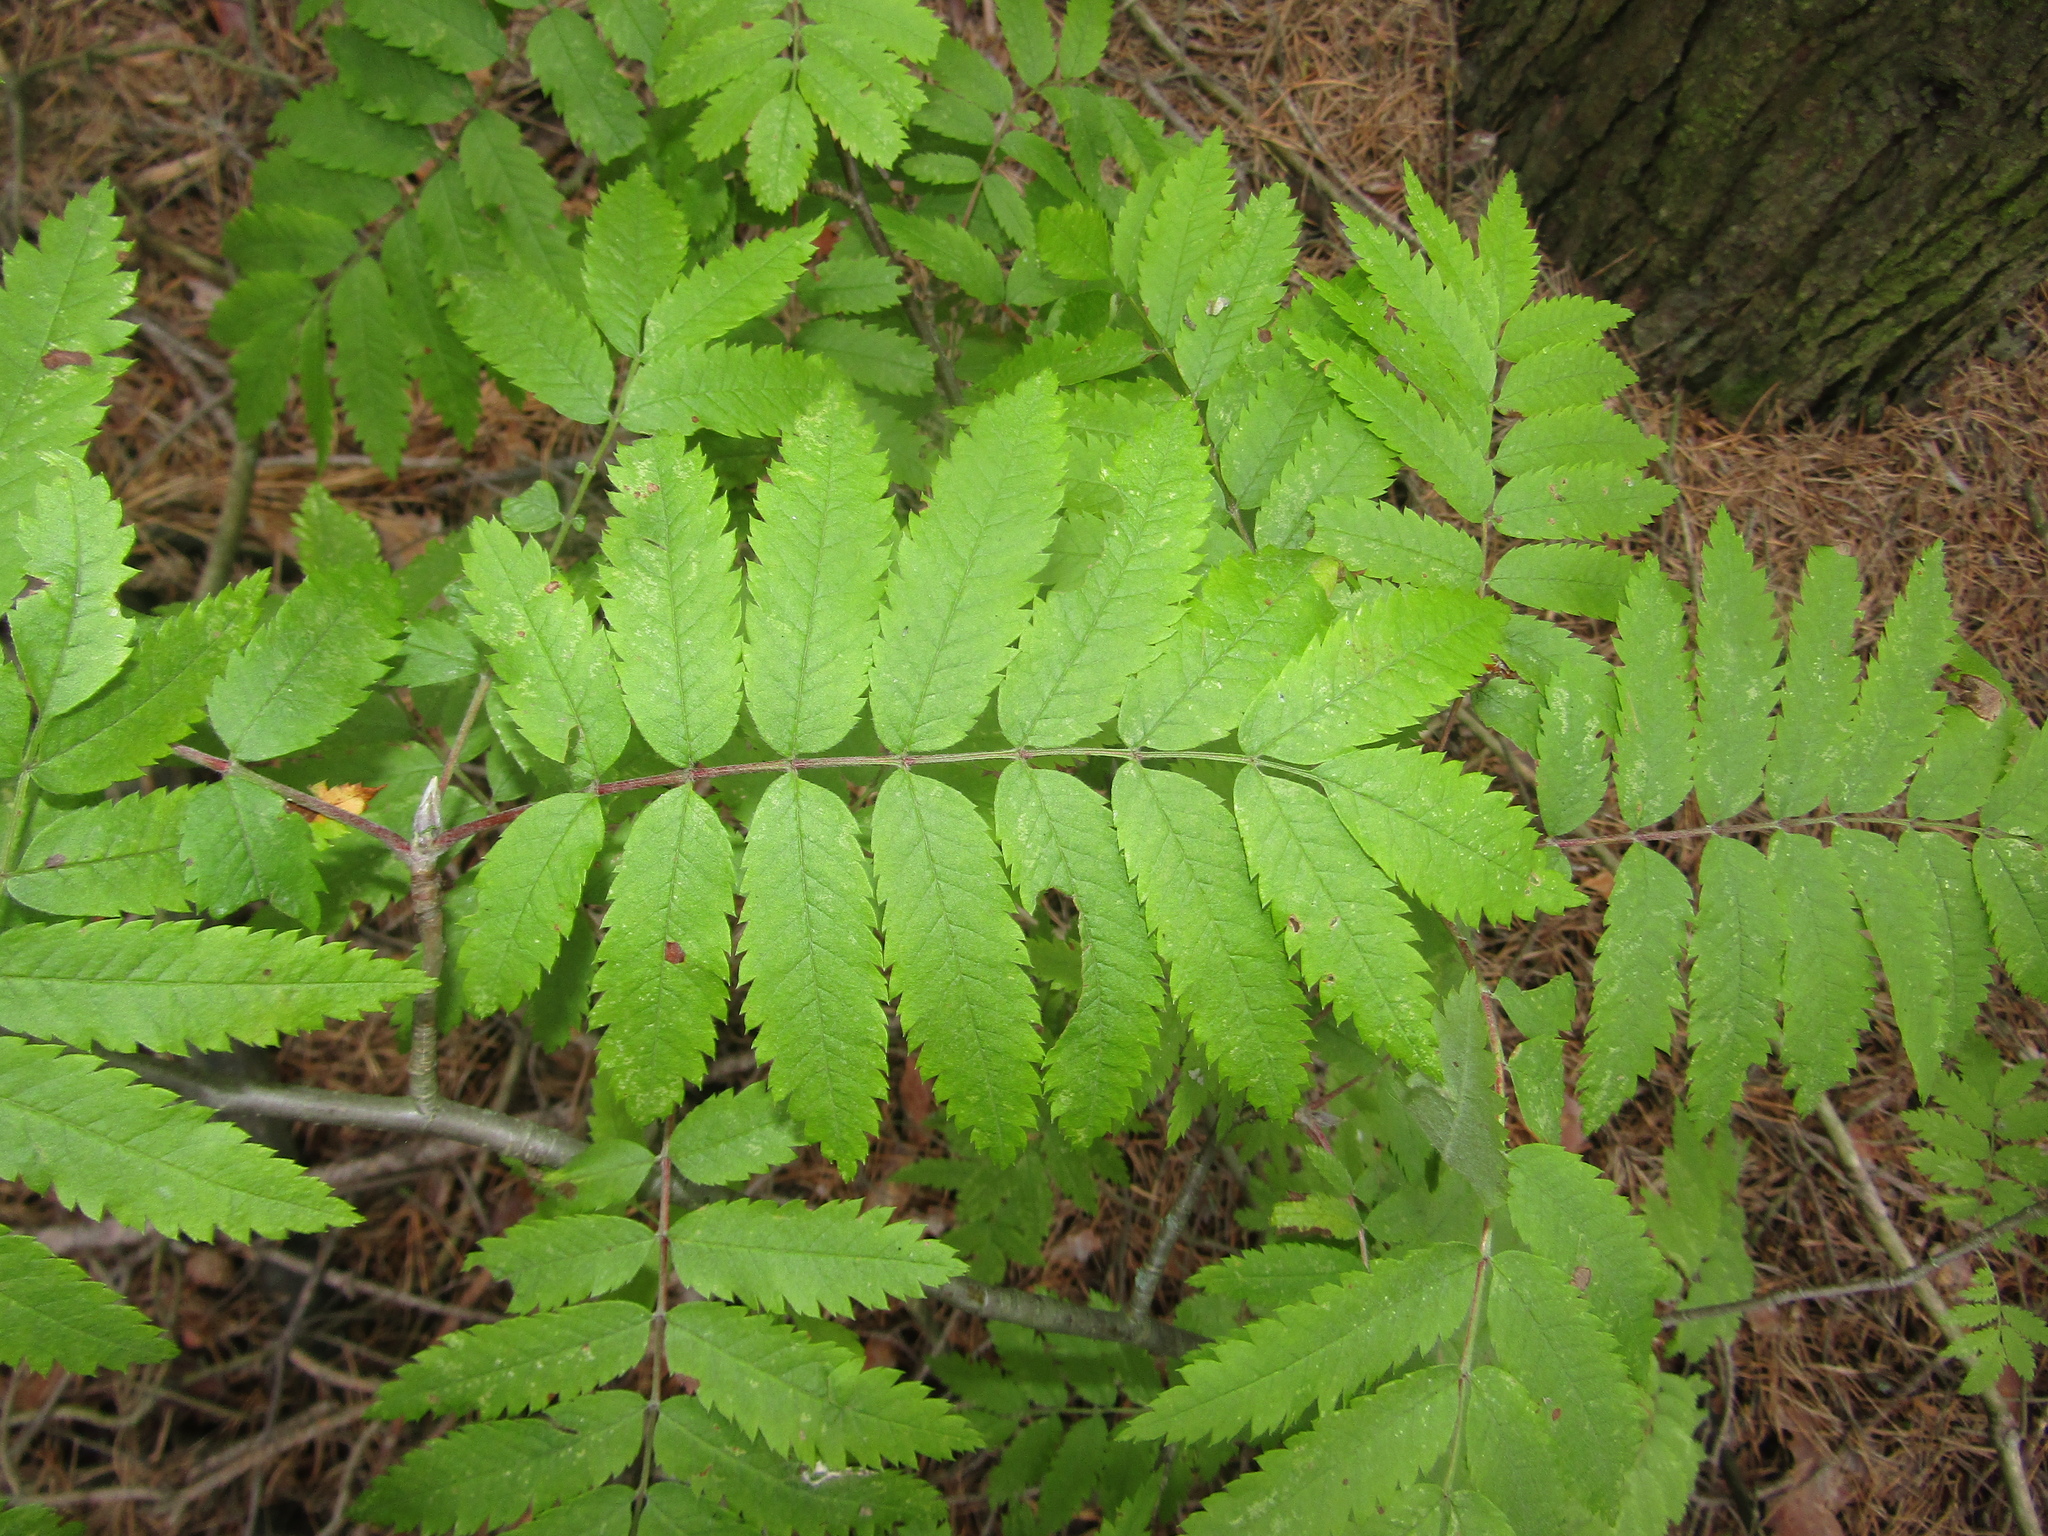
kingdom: Plantae
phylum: Tracheophyta
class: Magnoliopsida
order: Rosales
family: Rosaceae
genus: Sorbus
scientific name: Sorbus aucuparia
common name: Rowan
